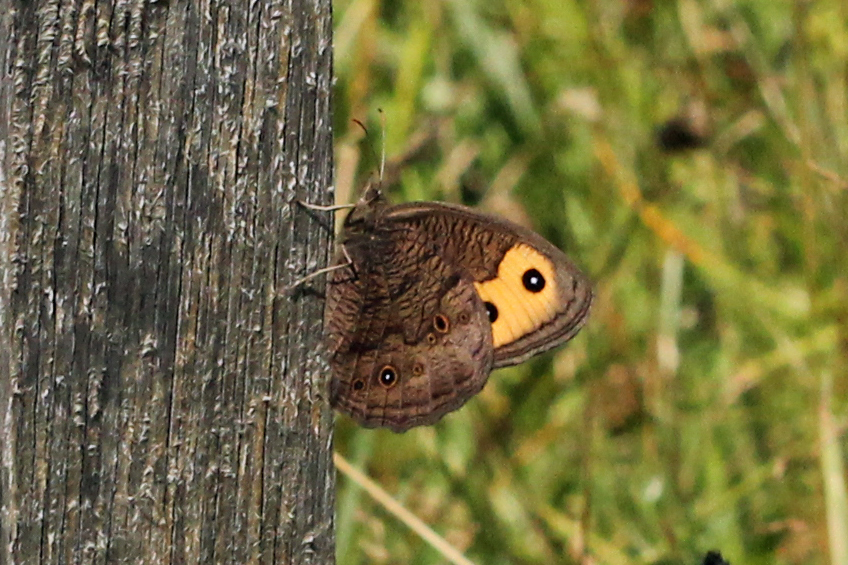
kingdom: Animalia
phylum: Arthropoda
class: Insecta
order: Lepidoptera
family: Nymphalidae
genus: Cercyonis
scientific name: Cercyonis pegala
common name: Common wood-nymph
